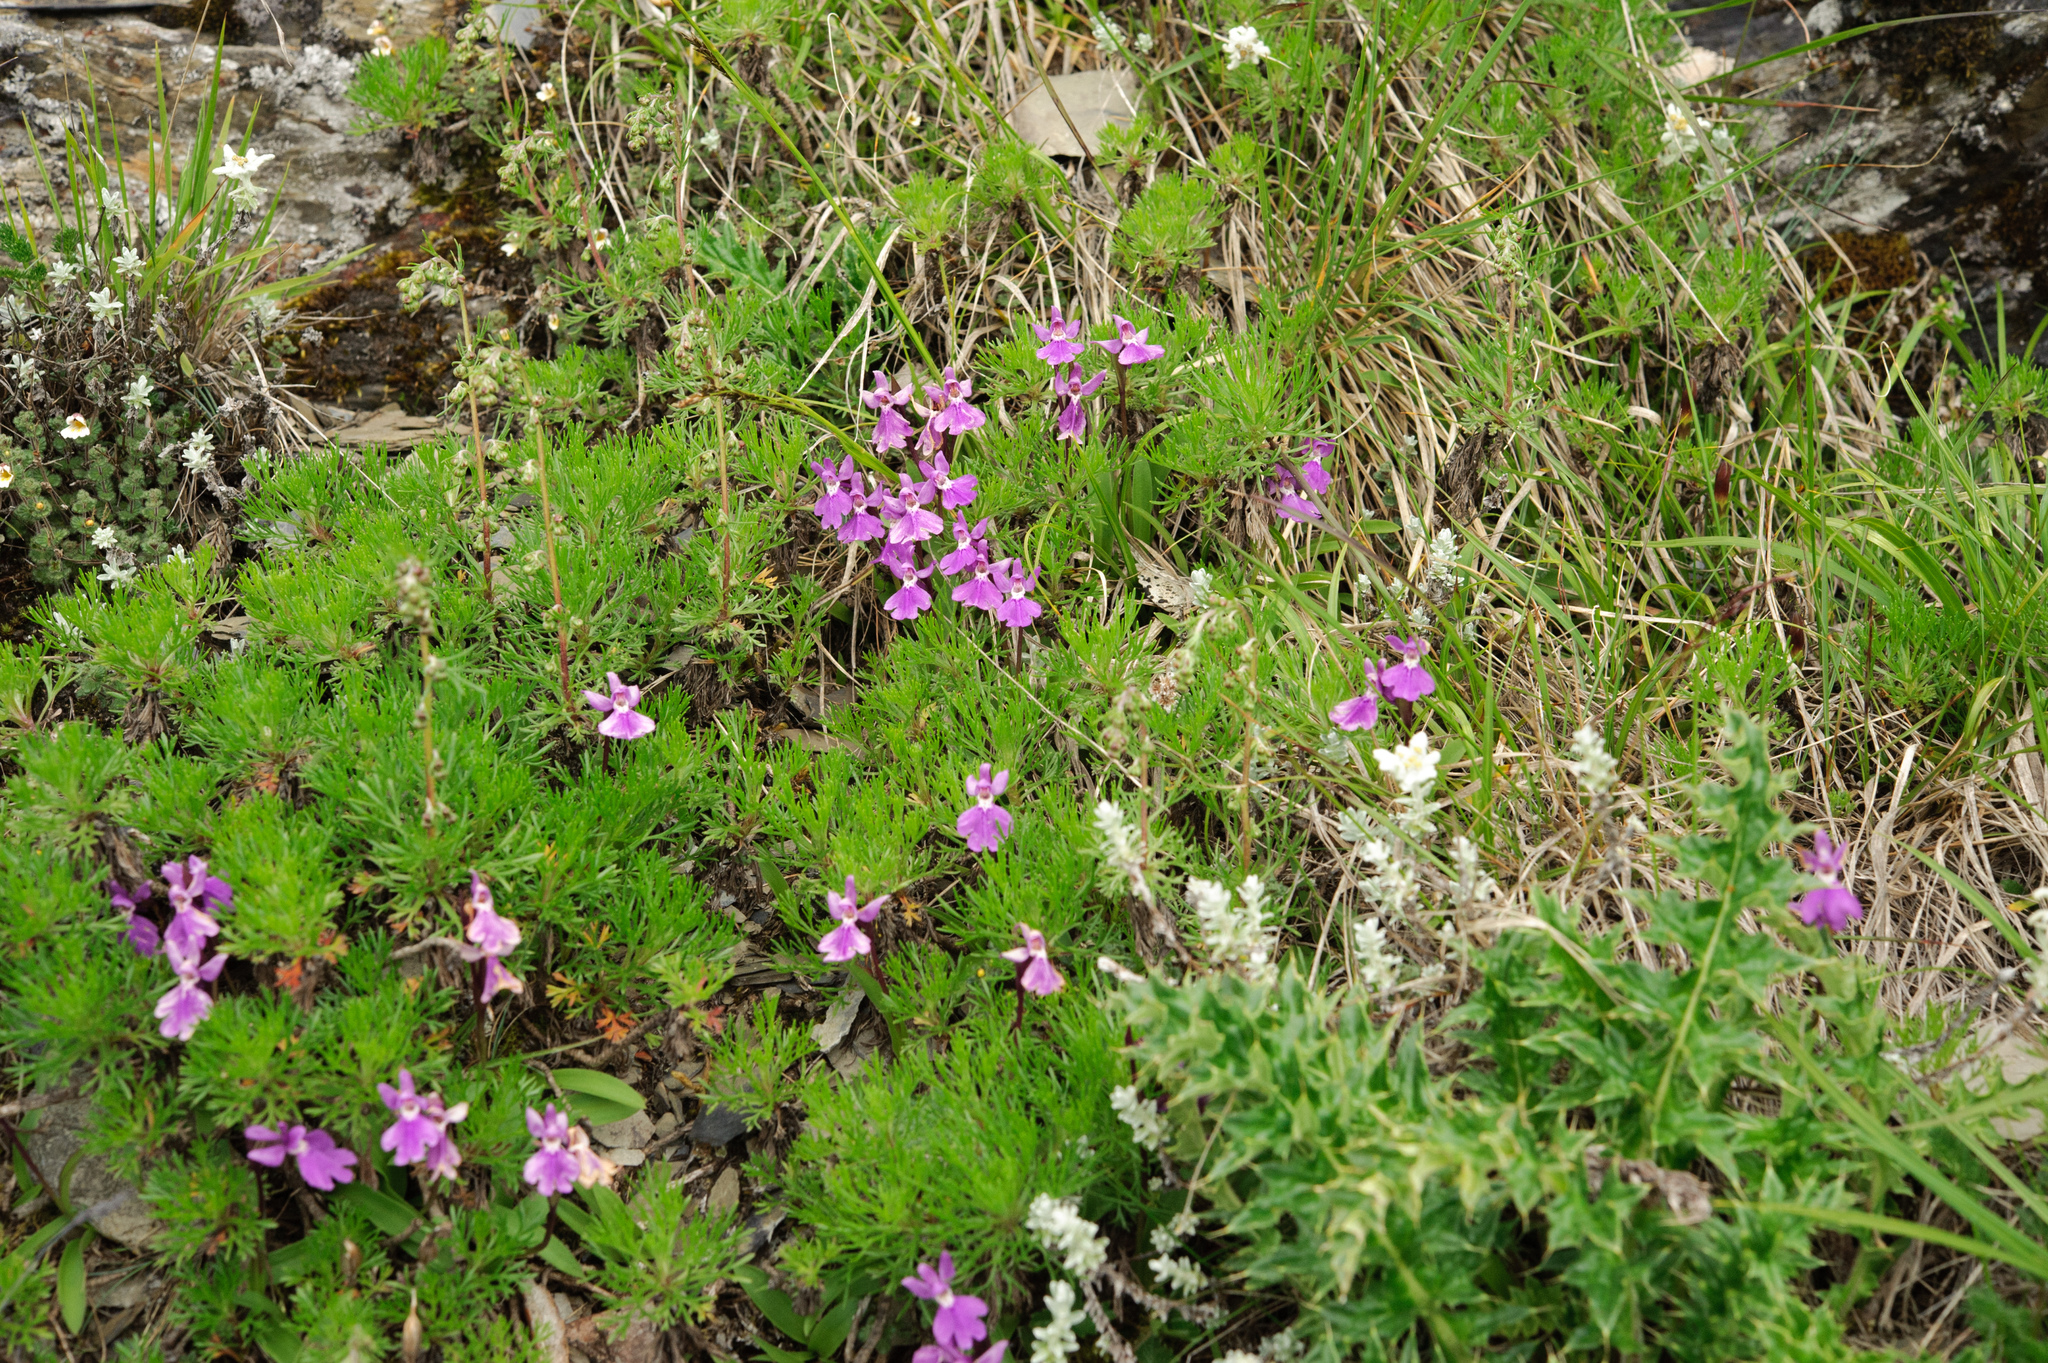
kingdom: Plantae
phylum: Tracheophyta
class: Liliopsida
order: Asparagales
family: Orchidaceae
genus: Hemipilia
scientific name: Hemipilia kiraishiensis
